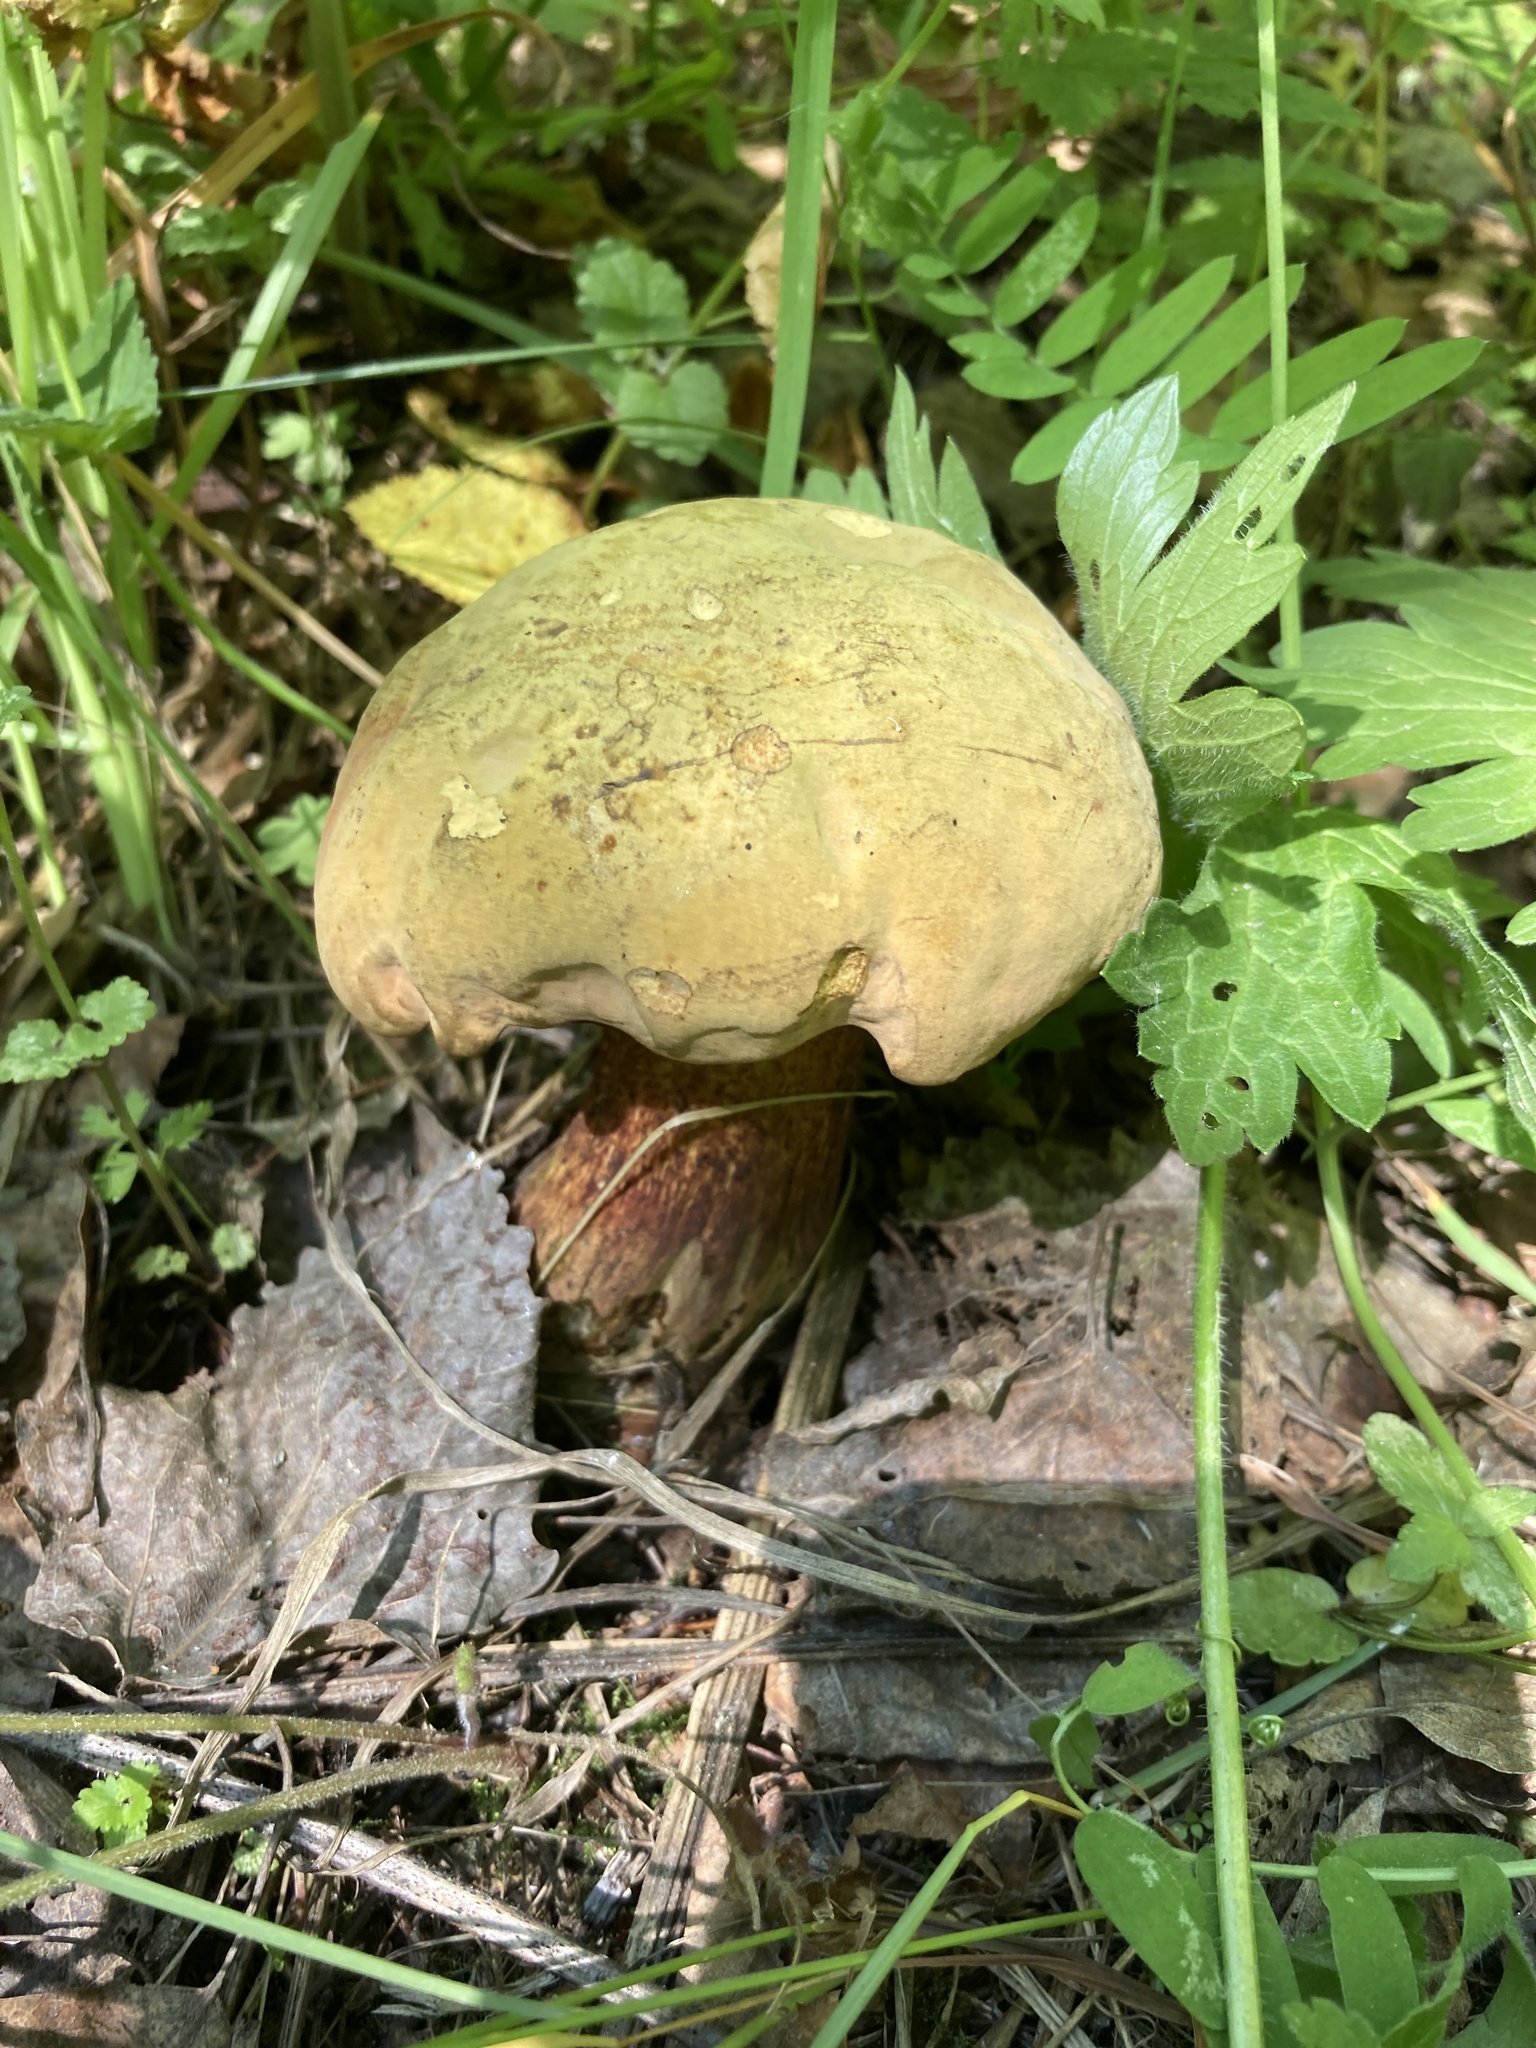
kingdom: Fungi
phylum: Basidiomycota
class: Agaricomycetes
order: Boletales
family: Boletaceae
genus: Suillellus
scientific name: Suillellus luridus
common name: Lurid bolete
